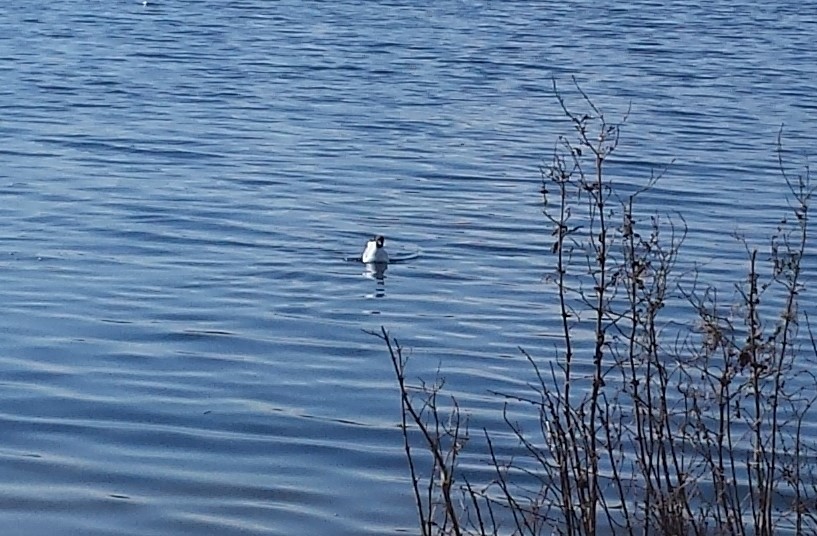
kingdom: Animalia
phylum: Chordata
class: Aves
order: Charadriiformes
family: Laridae
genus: Chroicocephalus
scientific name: Chroicocephalus ridibundus
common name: Black-headed gull
